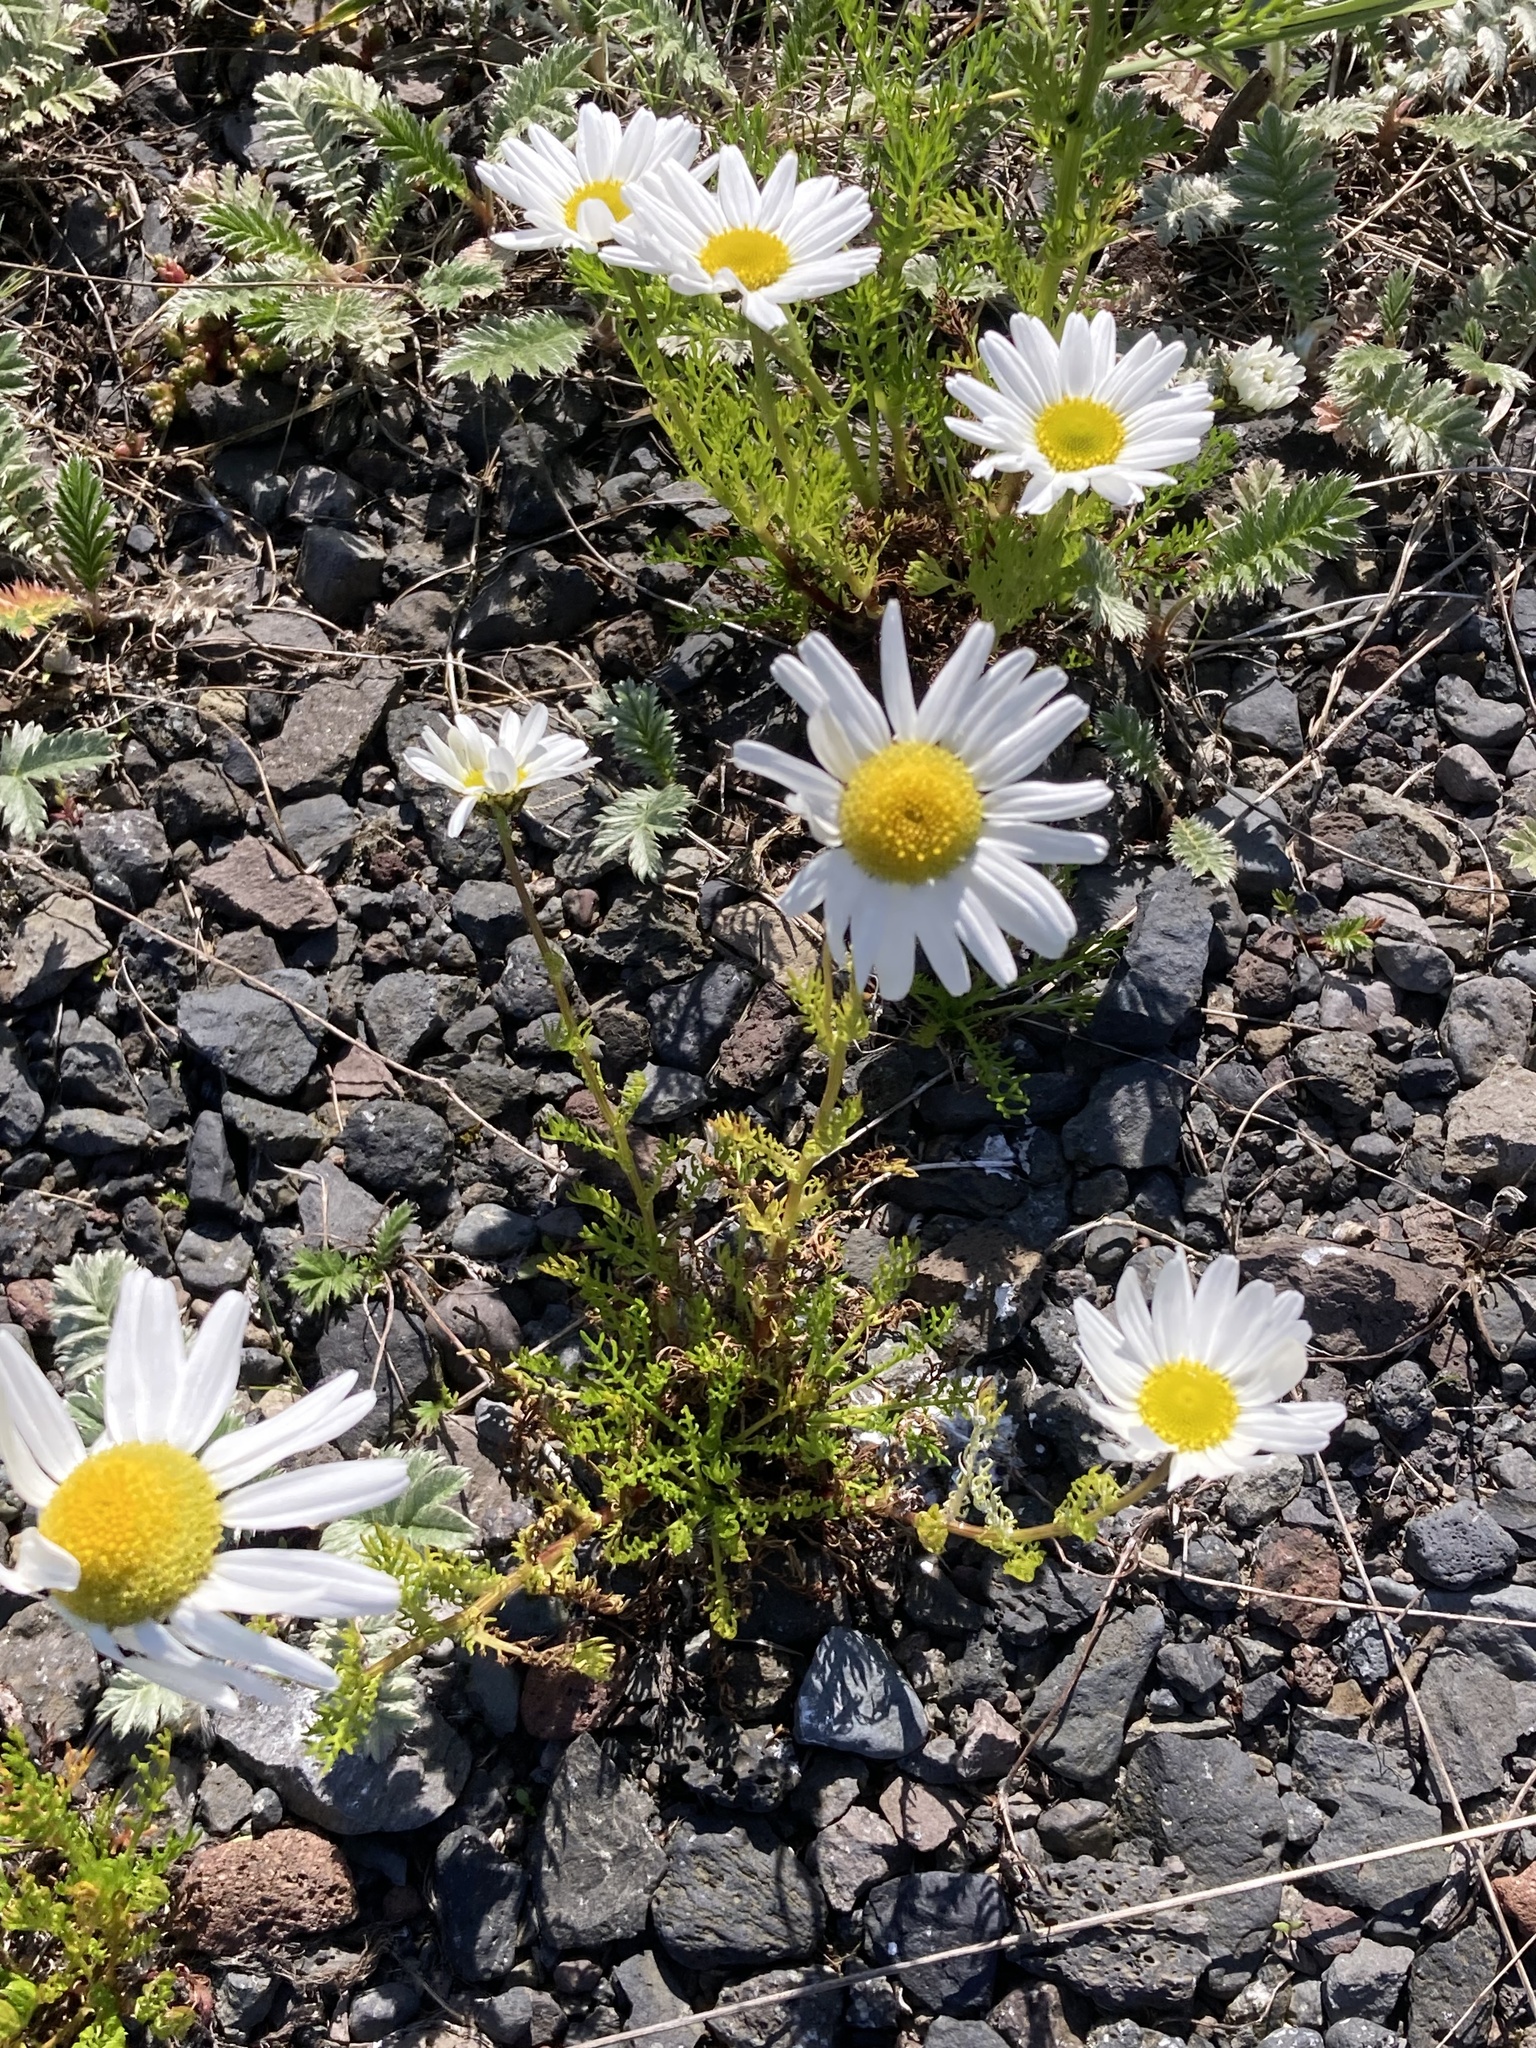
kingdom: Plantae
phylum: Tracheophyta
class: Magnoliopsida
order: Asterales
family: Asteraceae
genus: Tripleurospermum
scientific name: Tripleurospermum maritimum
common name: Sea mayweed
